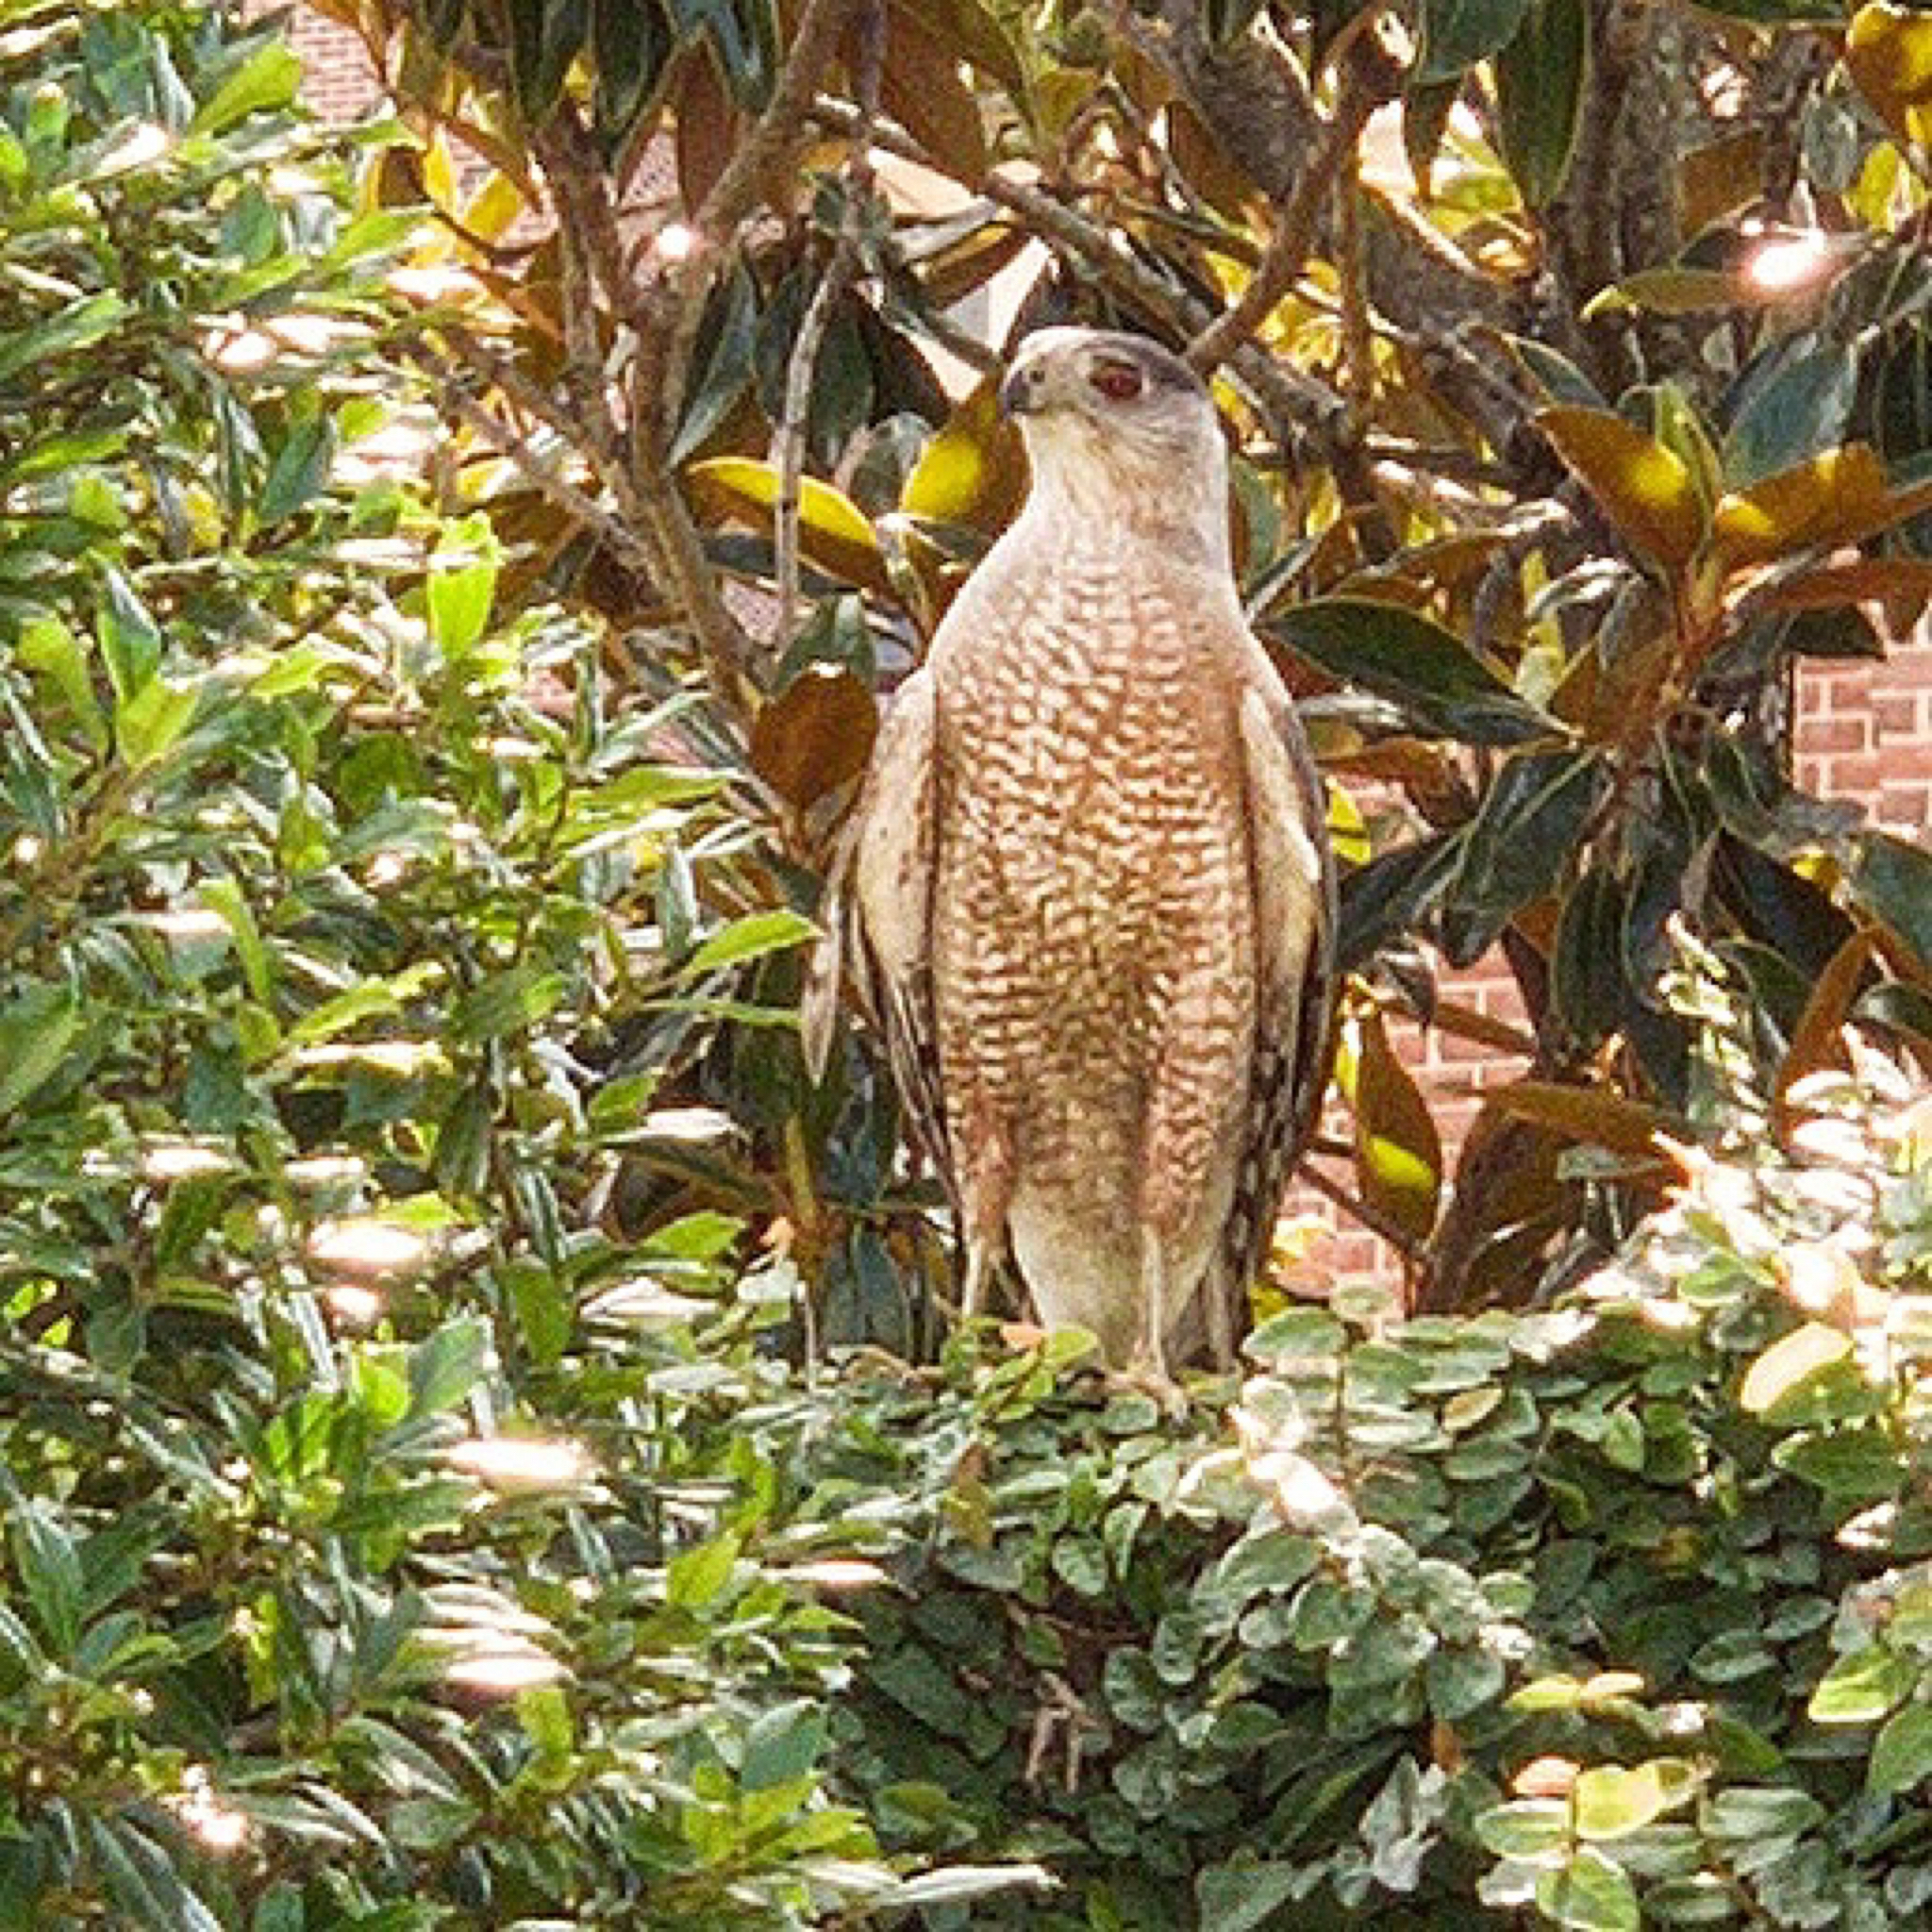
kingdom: Animalia
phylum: Chordata
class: Aves
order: Accipitriformes
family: Accipitridae
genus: Accipiter
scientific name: Accipiter cooperii
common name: Cooper's hawk
